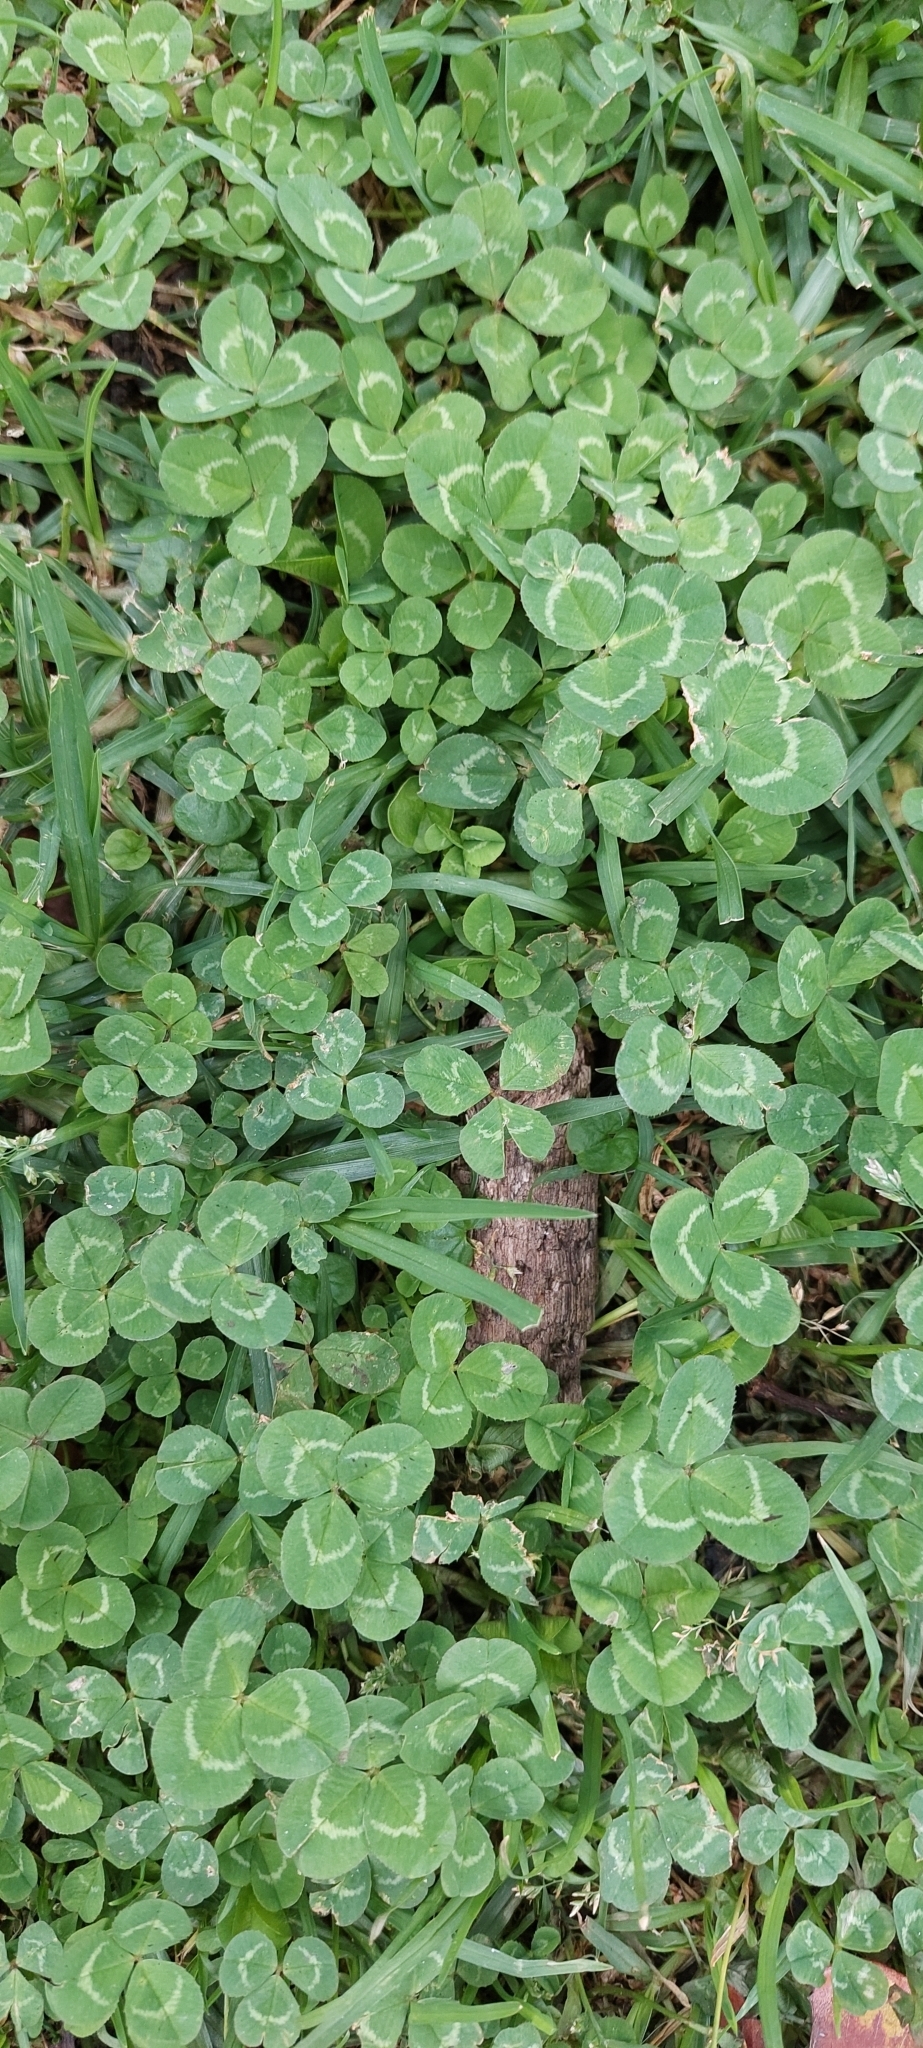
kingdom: Plantae
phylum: Tracheophyta
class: Magnoliopsida
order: Fabales
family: Fabaceae
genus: Trifolium
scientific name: Trifolium repens
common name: White clover
